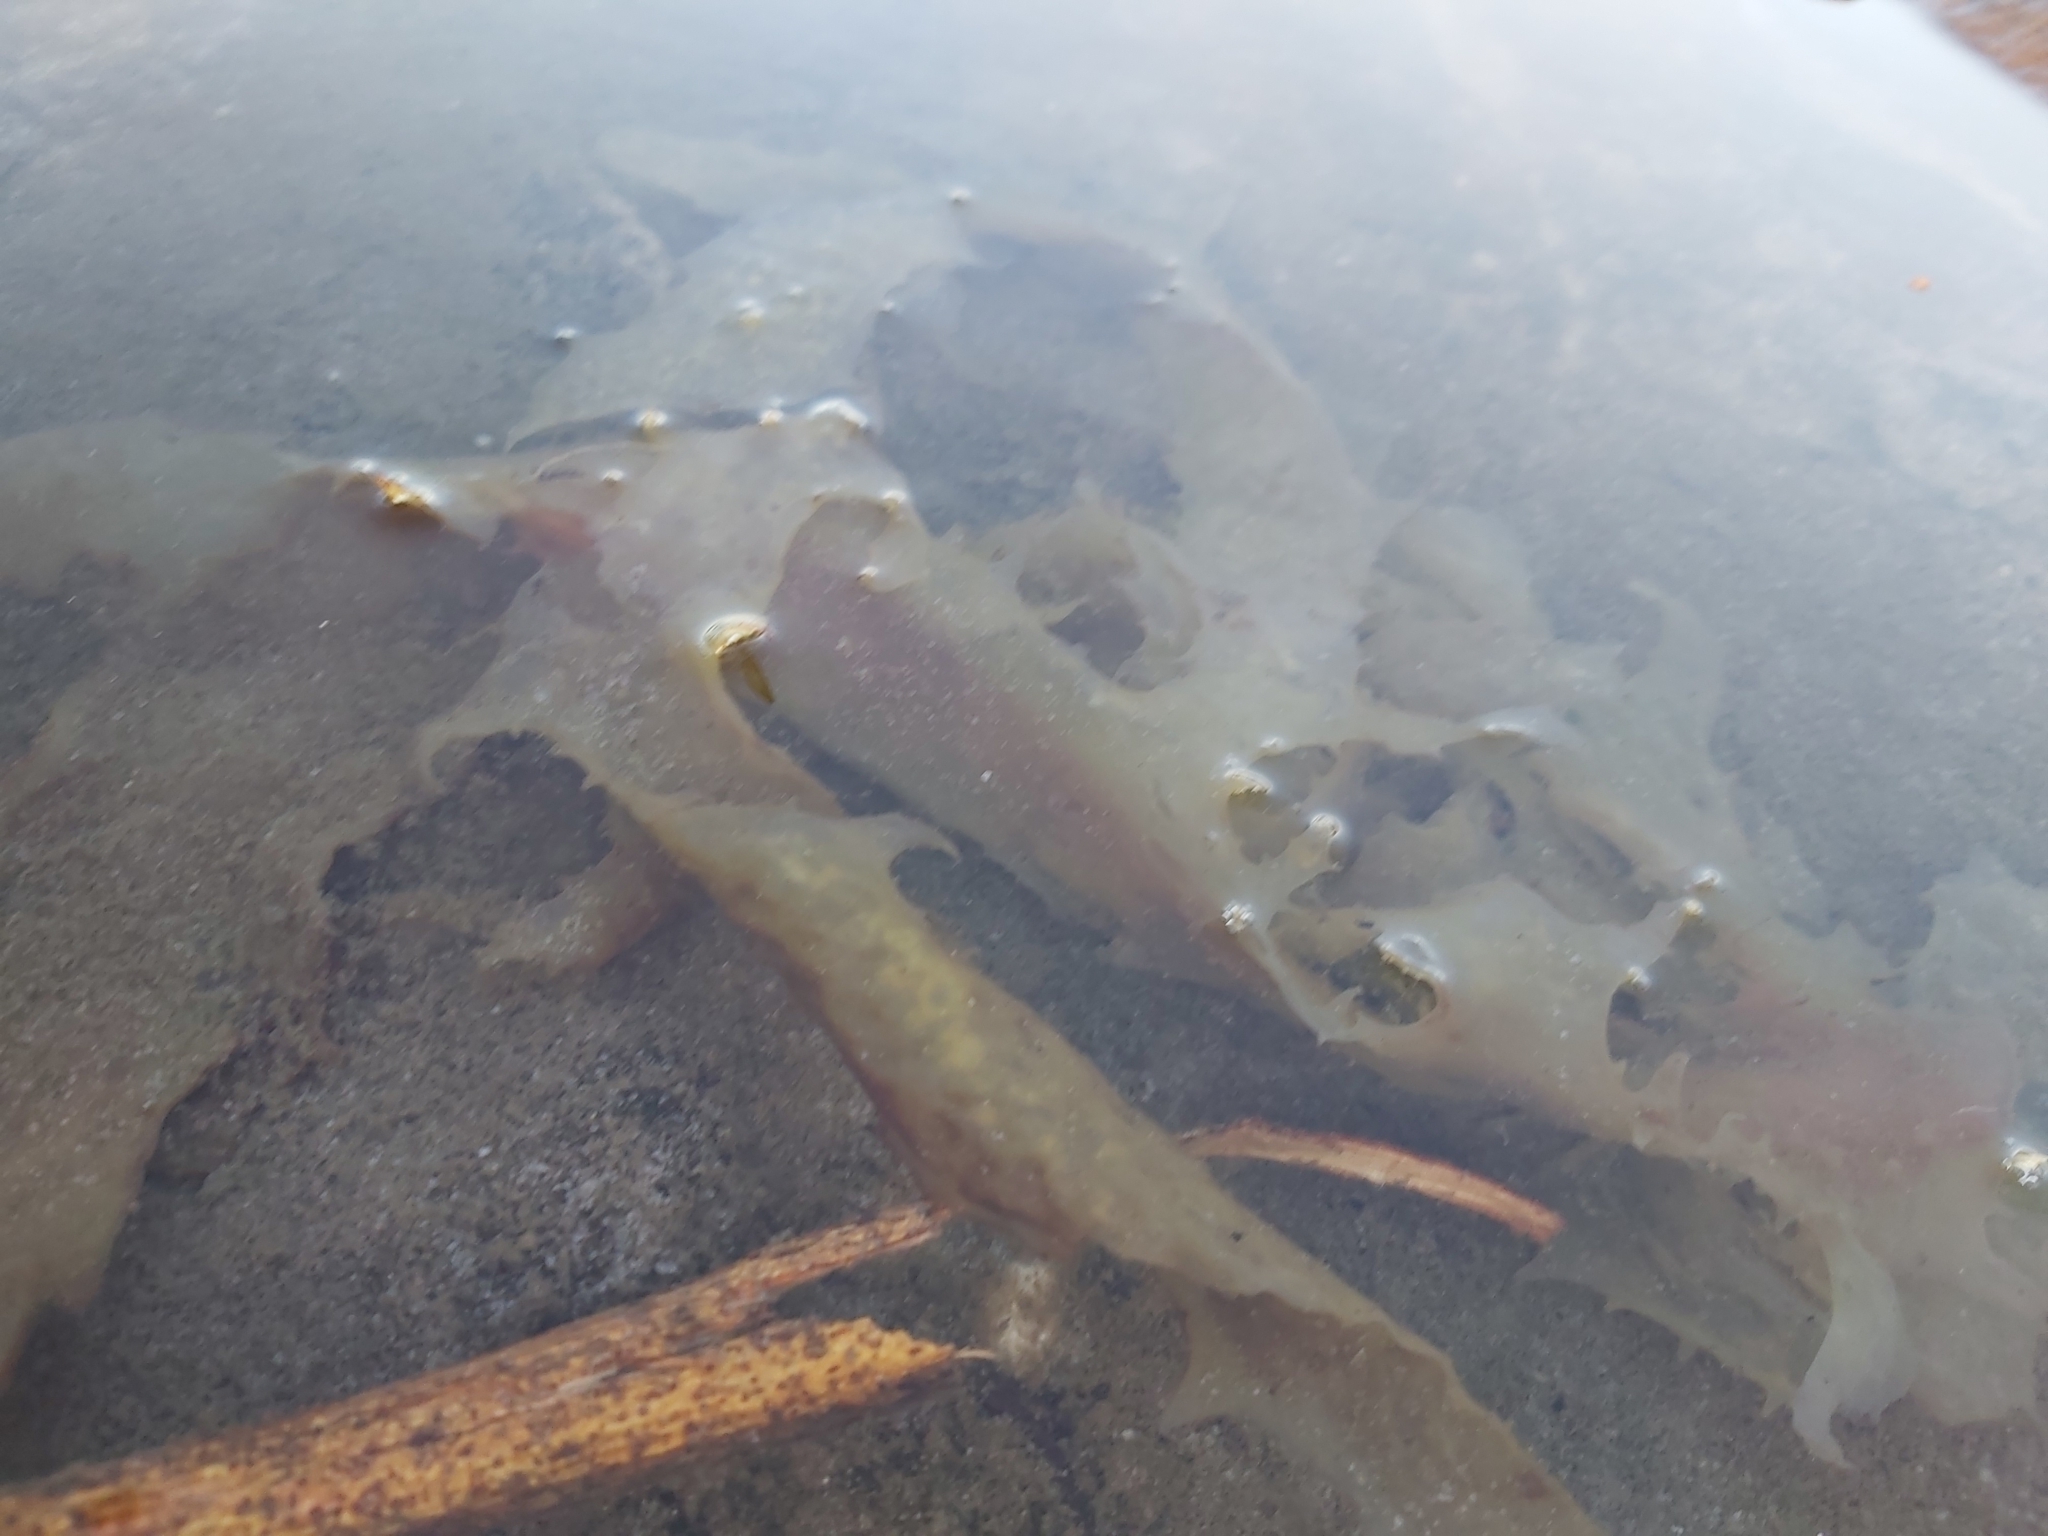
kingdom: Chromista
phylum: Ochrophyta
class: Phaeophyceae
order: Laminariales
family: Lessoniaceae
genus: Ecklonia
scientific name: Ecklonia radiata
